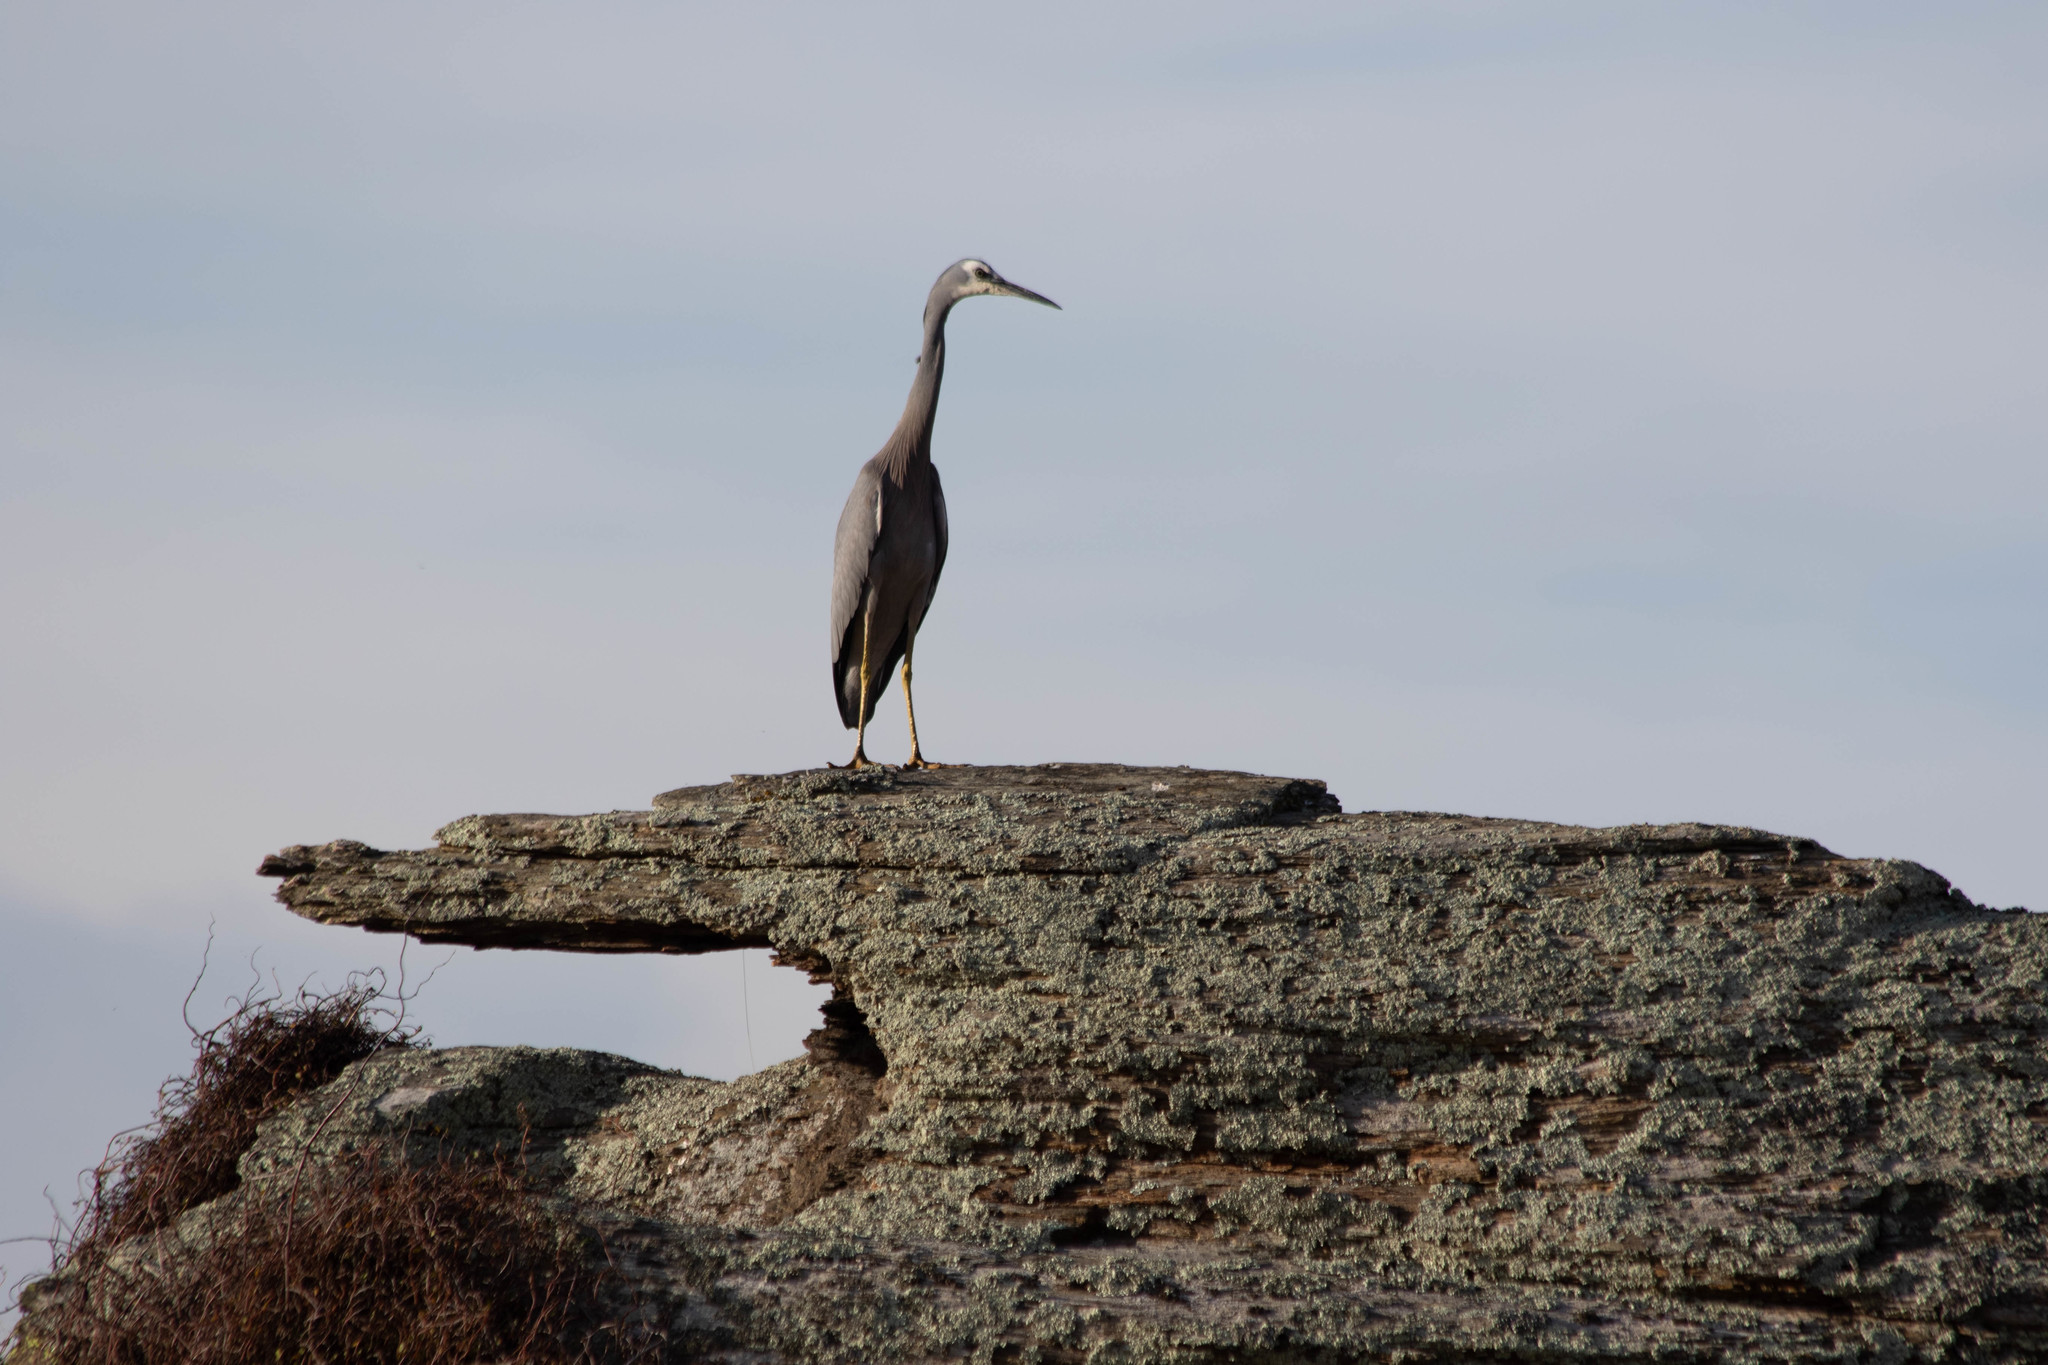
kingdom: Animalia
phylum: Chordata
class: Aves
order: Pelecaniformes
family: Ardeidae
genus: Egretta
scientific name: Egretta novaehollandiae
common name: White-faced heron
